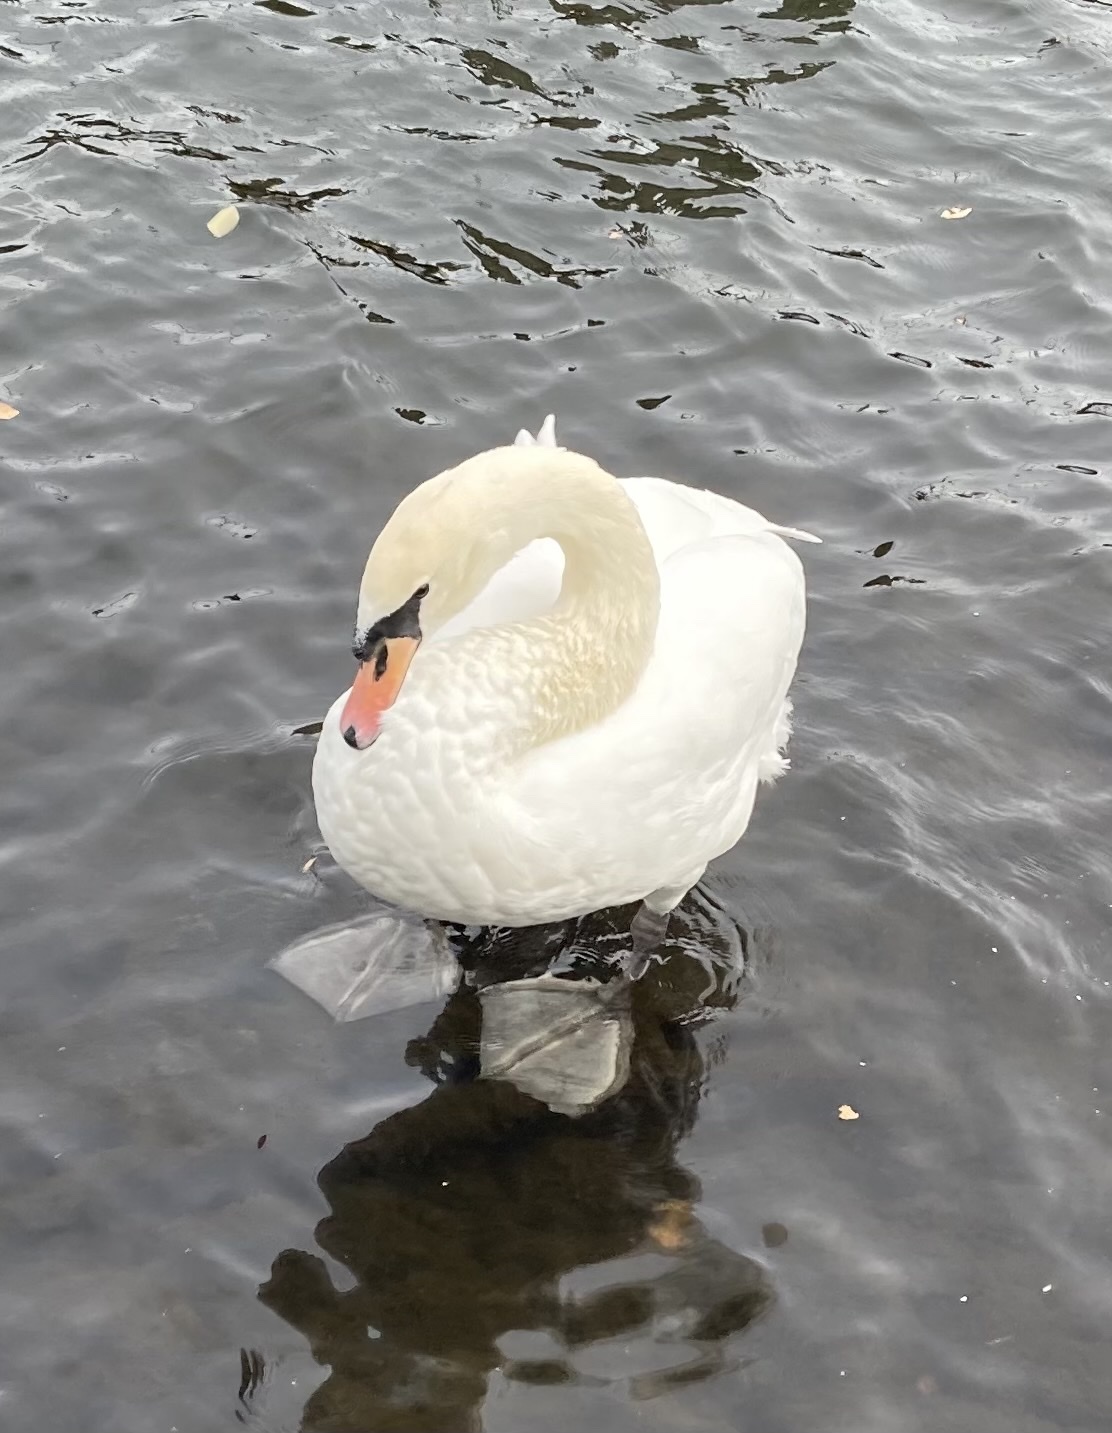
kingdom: Animalia
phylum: Chordata
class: Aves
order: Anseriformes
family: Anatidae
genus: Cygnus
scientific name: Cygnus olor
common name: Mute swan
